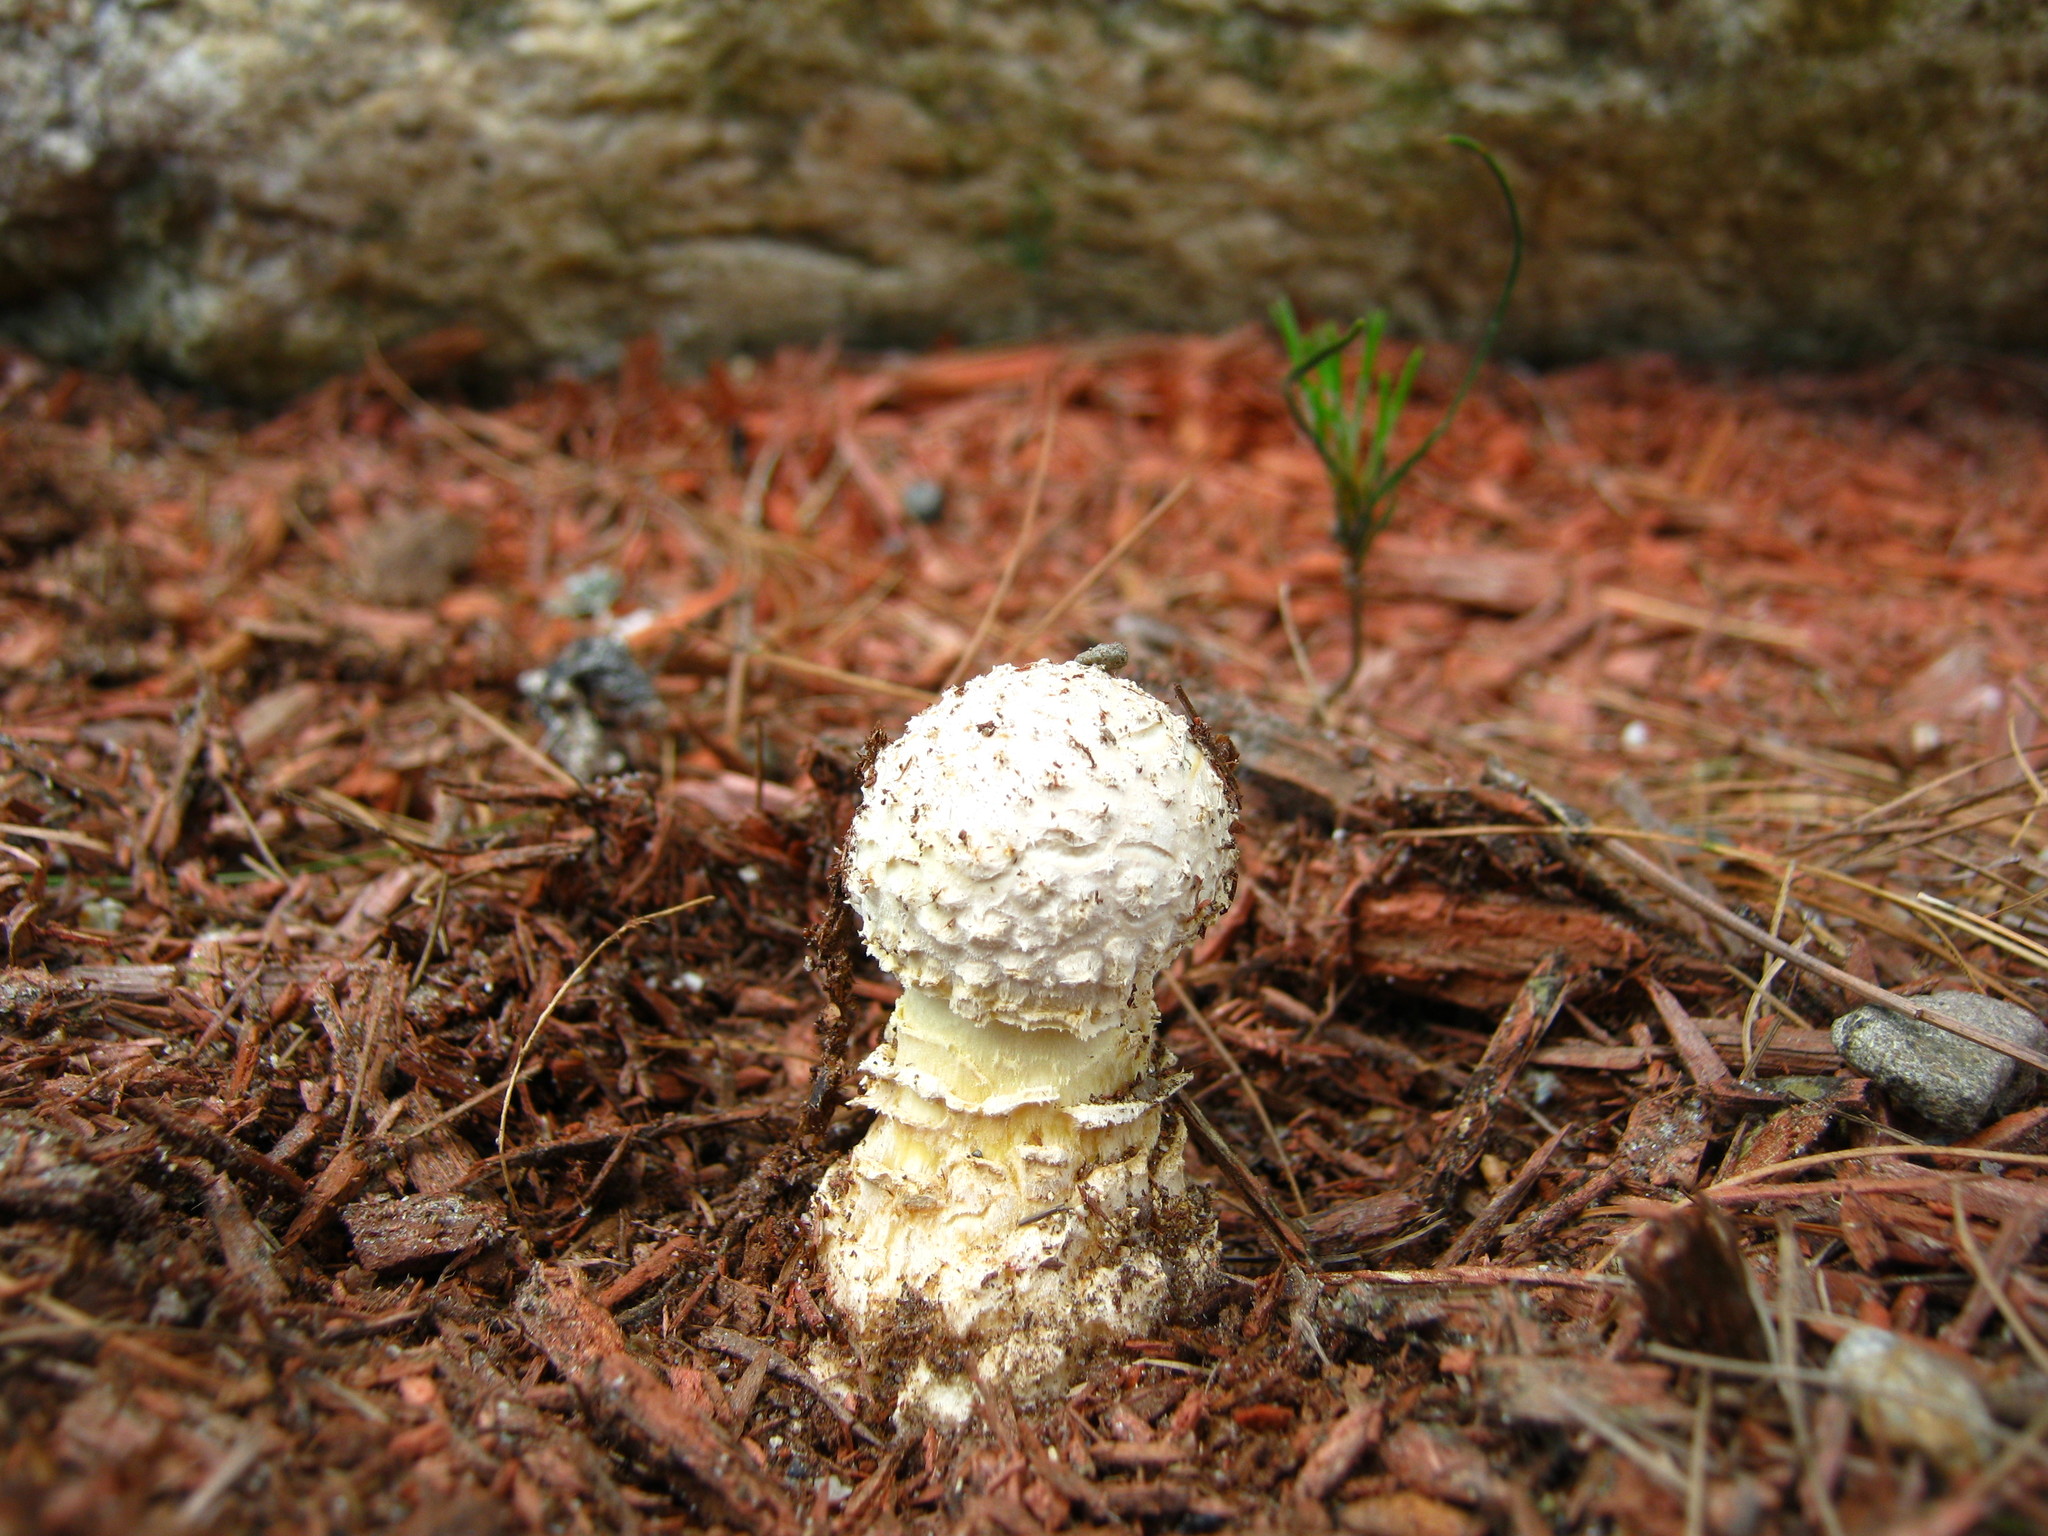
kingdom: Fungi
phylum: Basidiomycota
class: Agaricomycetes
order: Agaricales
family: Amanitaceae
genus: Amanita
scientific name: Amanita muscaria
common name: Fly agaric
